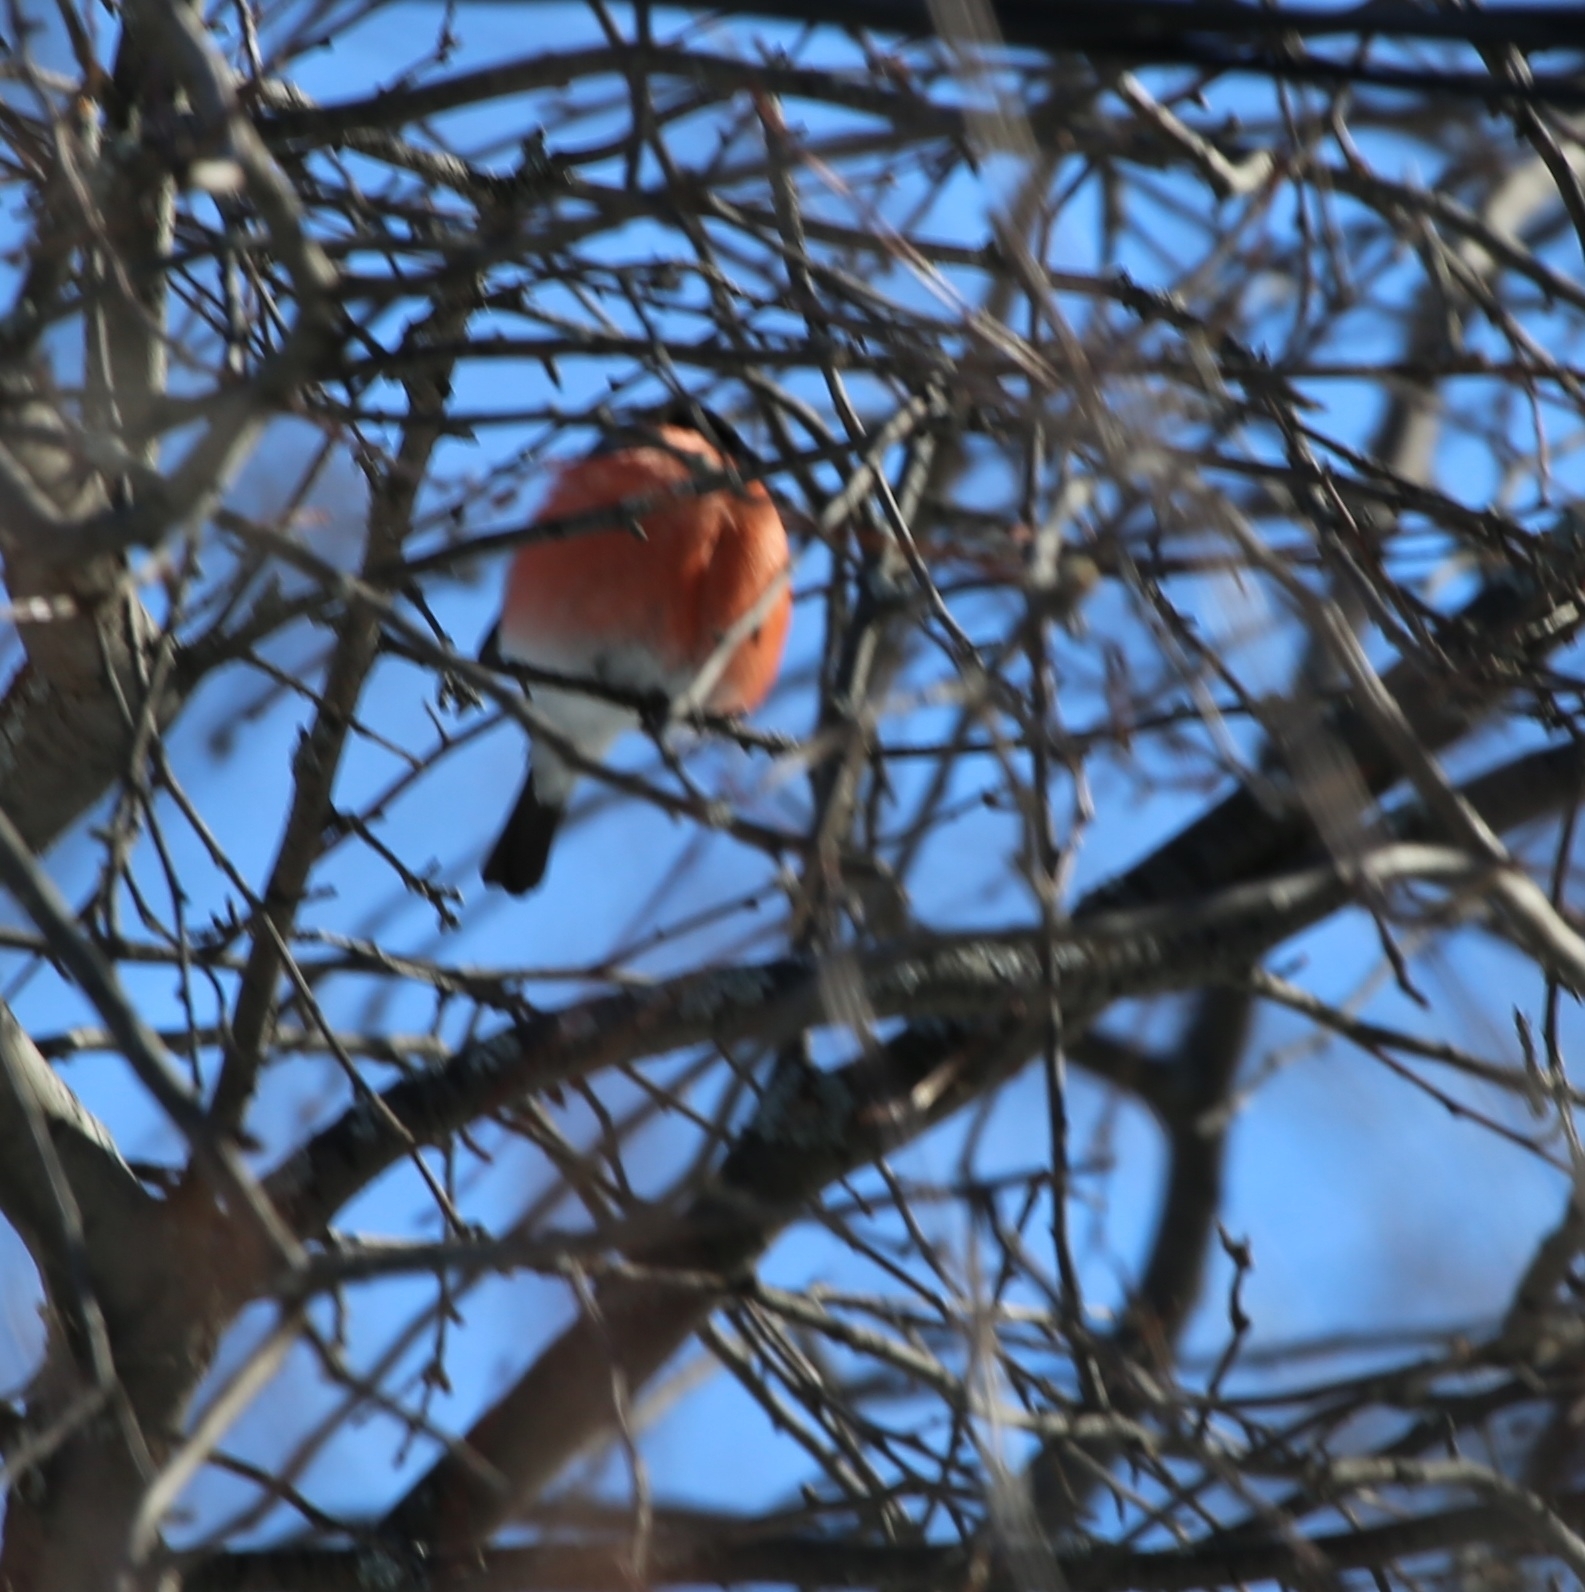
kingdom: Animalia
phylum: Chordata
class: Aves
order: Passeriformes
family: Fringillidae
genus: Pyrrhula
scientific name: Pyrrhula pyrrhula
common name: Eurasian bullfinch
